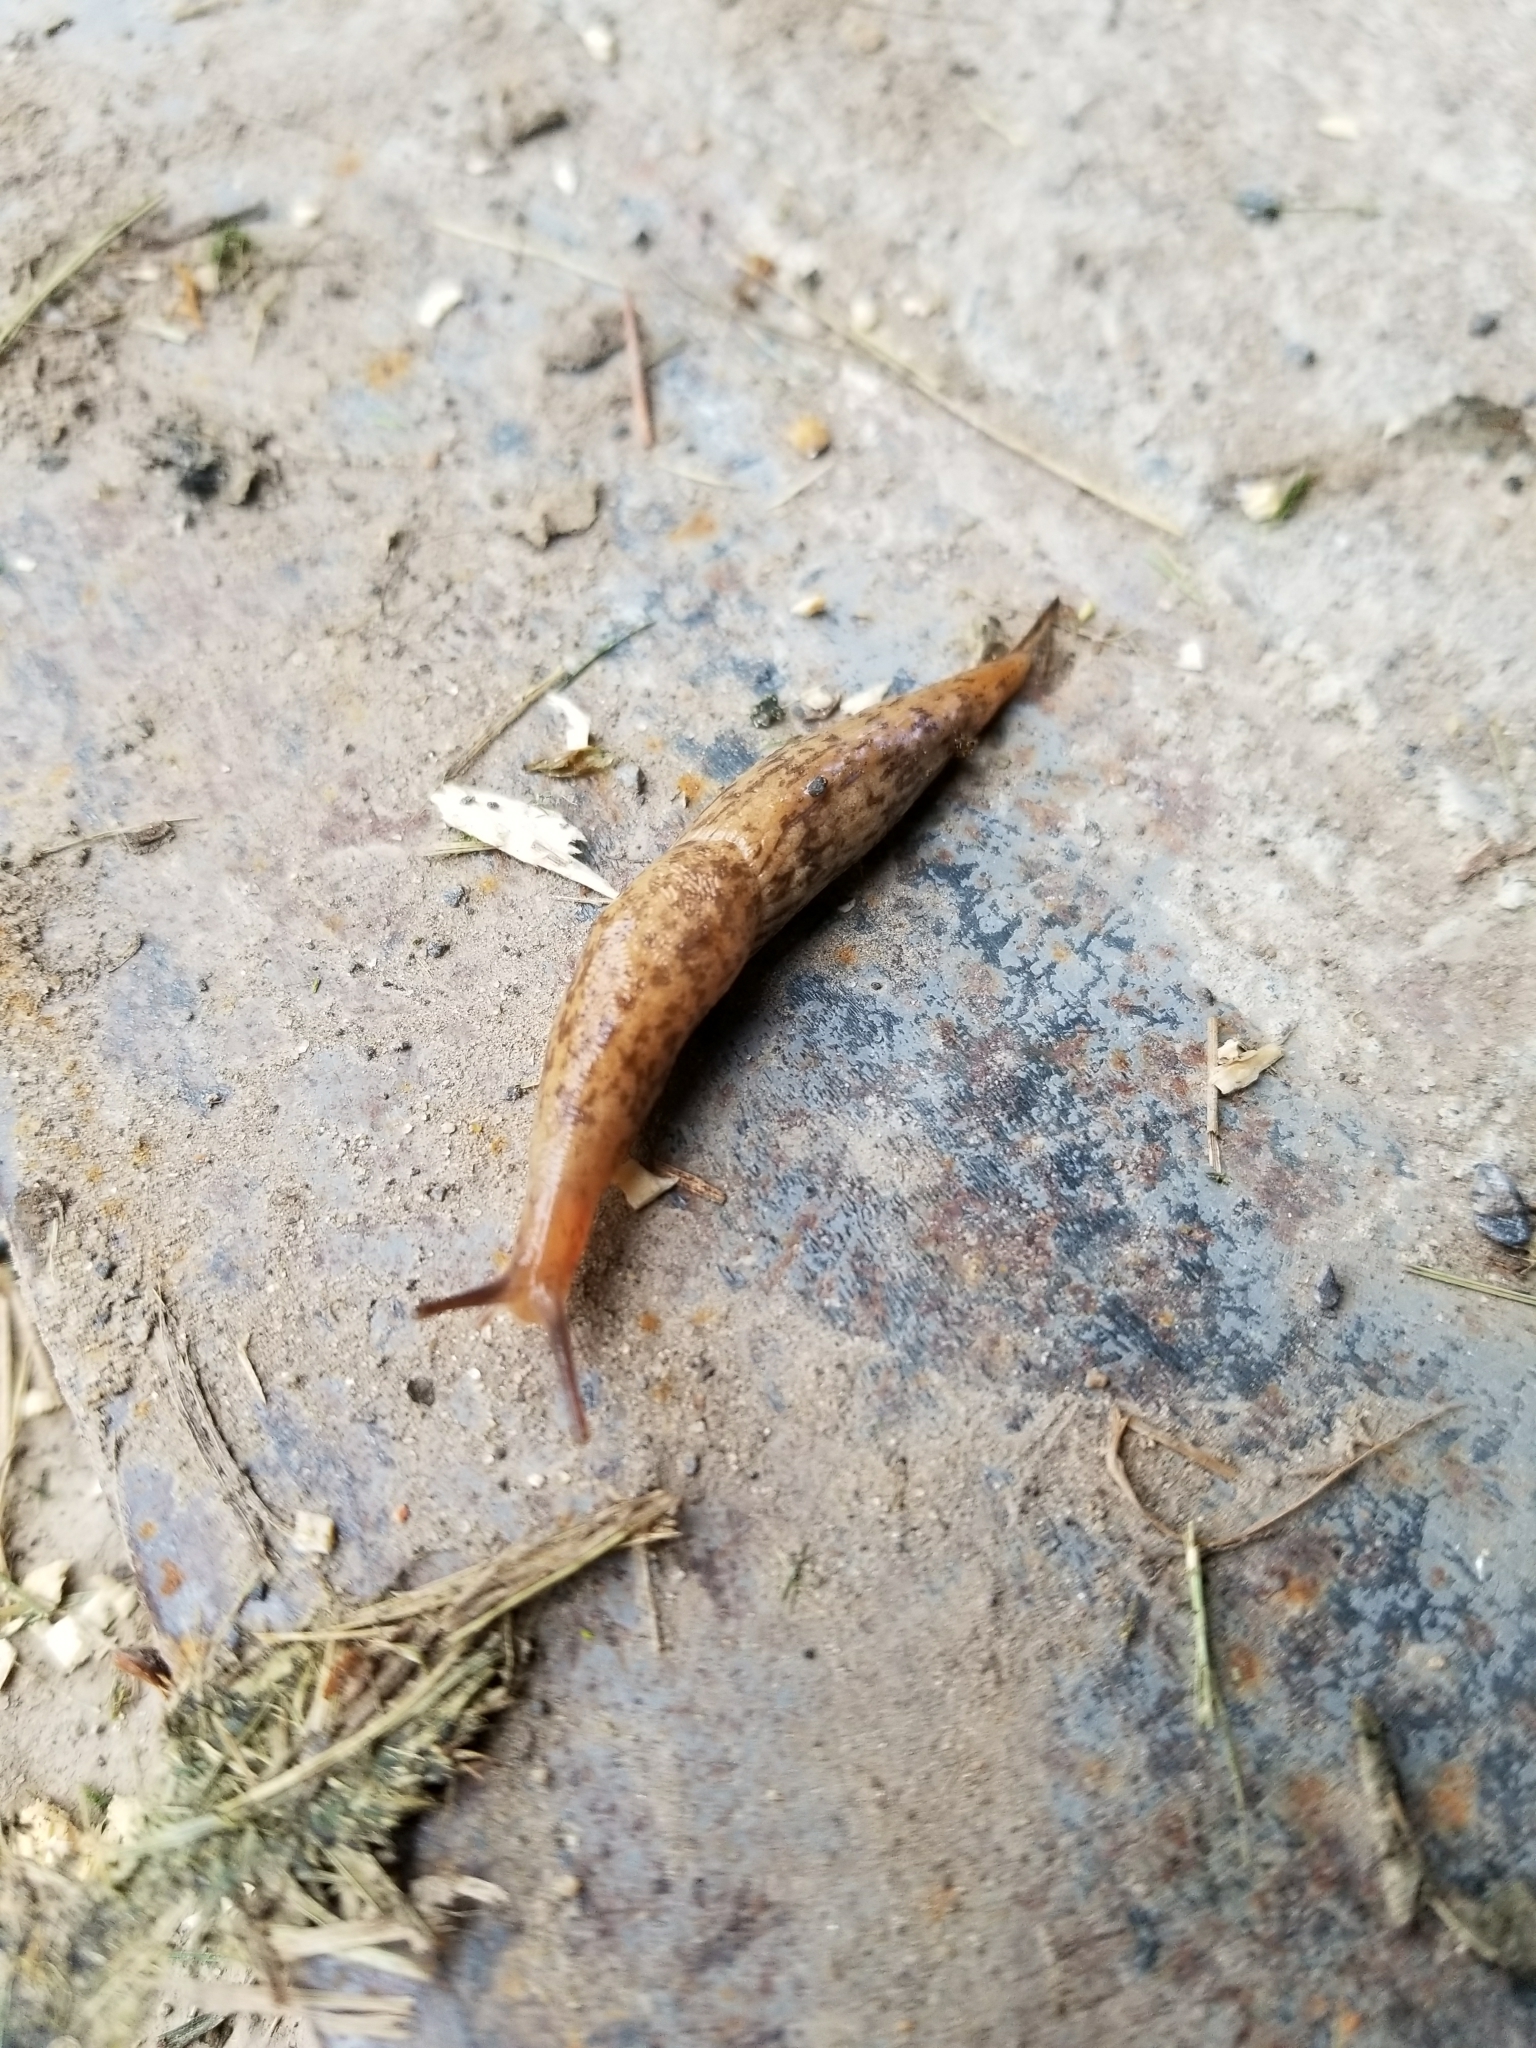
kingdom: Animalia
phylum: Mollusca
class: Gastropoda
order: Stylommatophora
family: Agriolimacidae
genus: Deroceras
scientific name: Deroceras reticulatum
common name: Gray field slug
